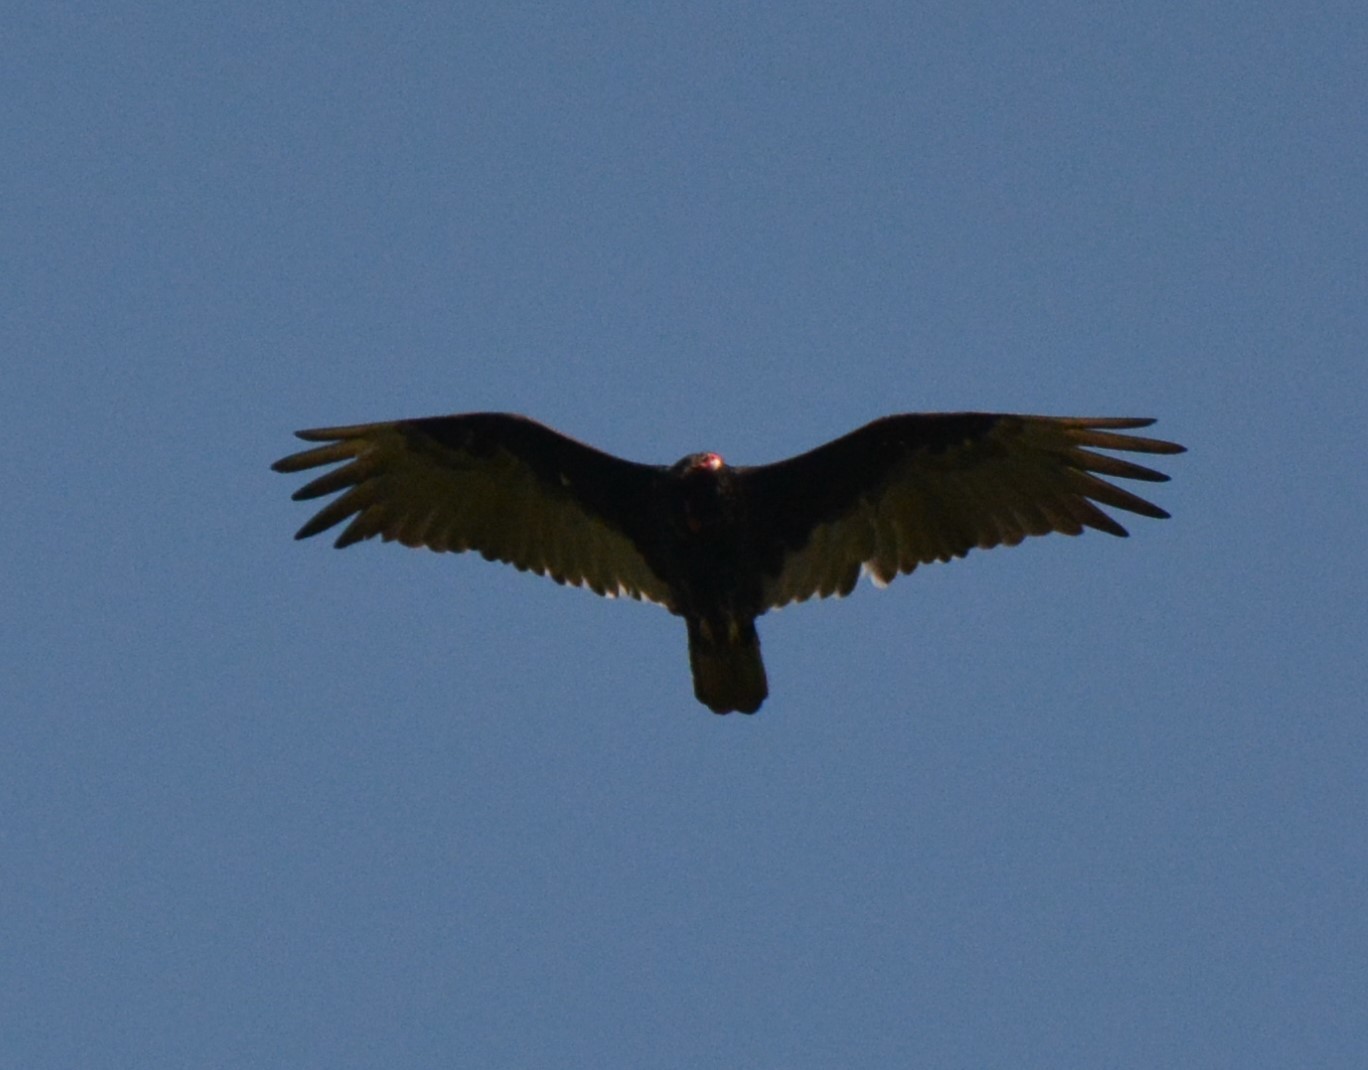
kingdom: Animalia
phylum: Chordata
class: Aves
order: Accipitriformes
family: Cathartidae
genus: Cathartes
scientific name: Cathartes aura
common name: Turkey vulture
